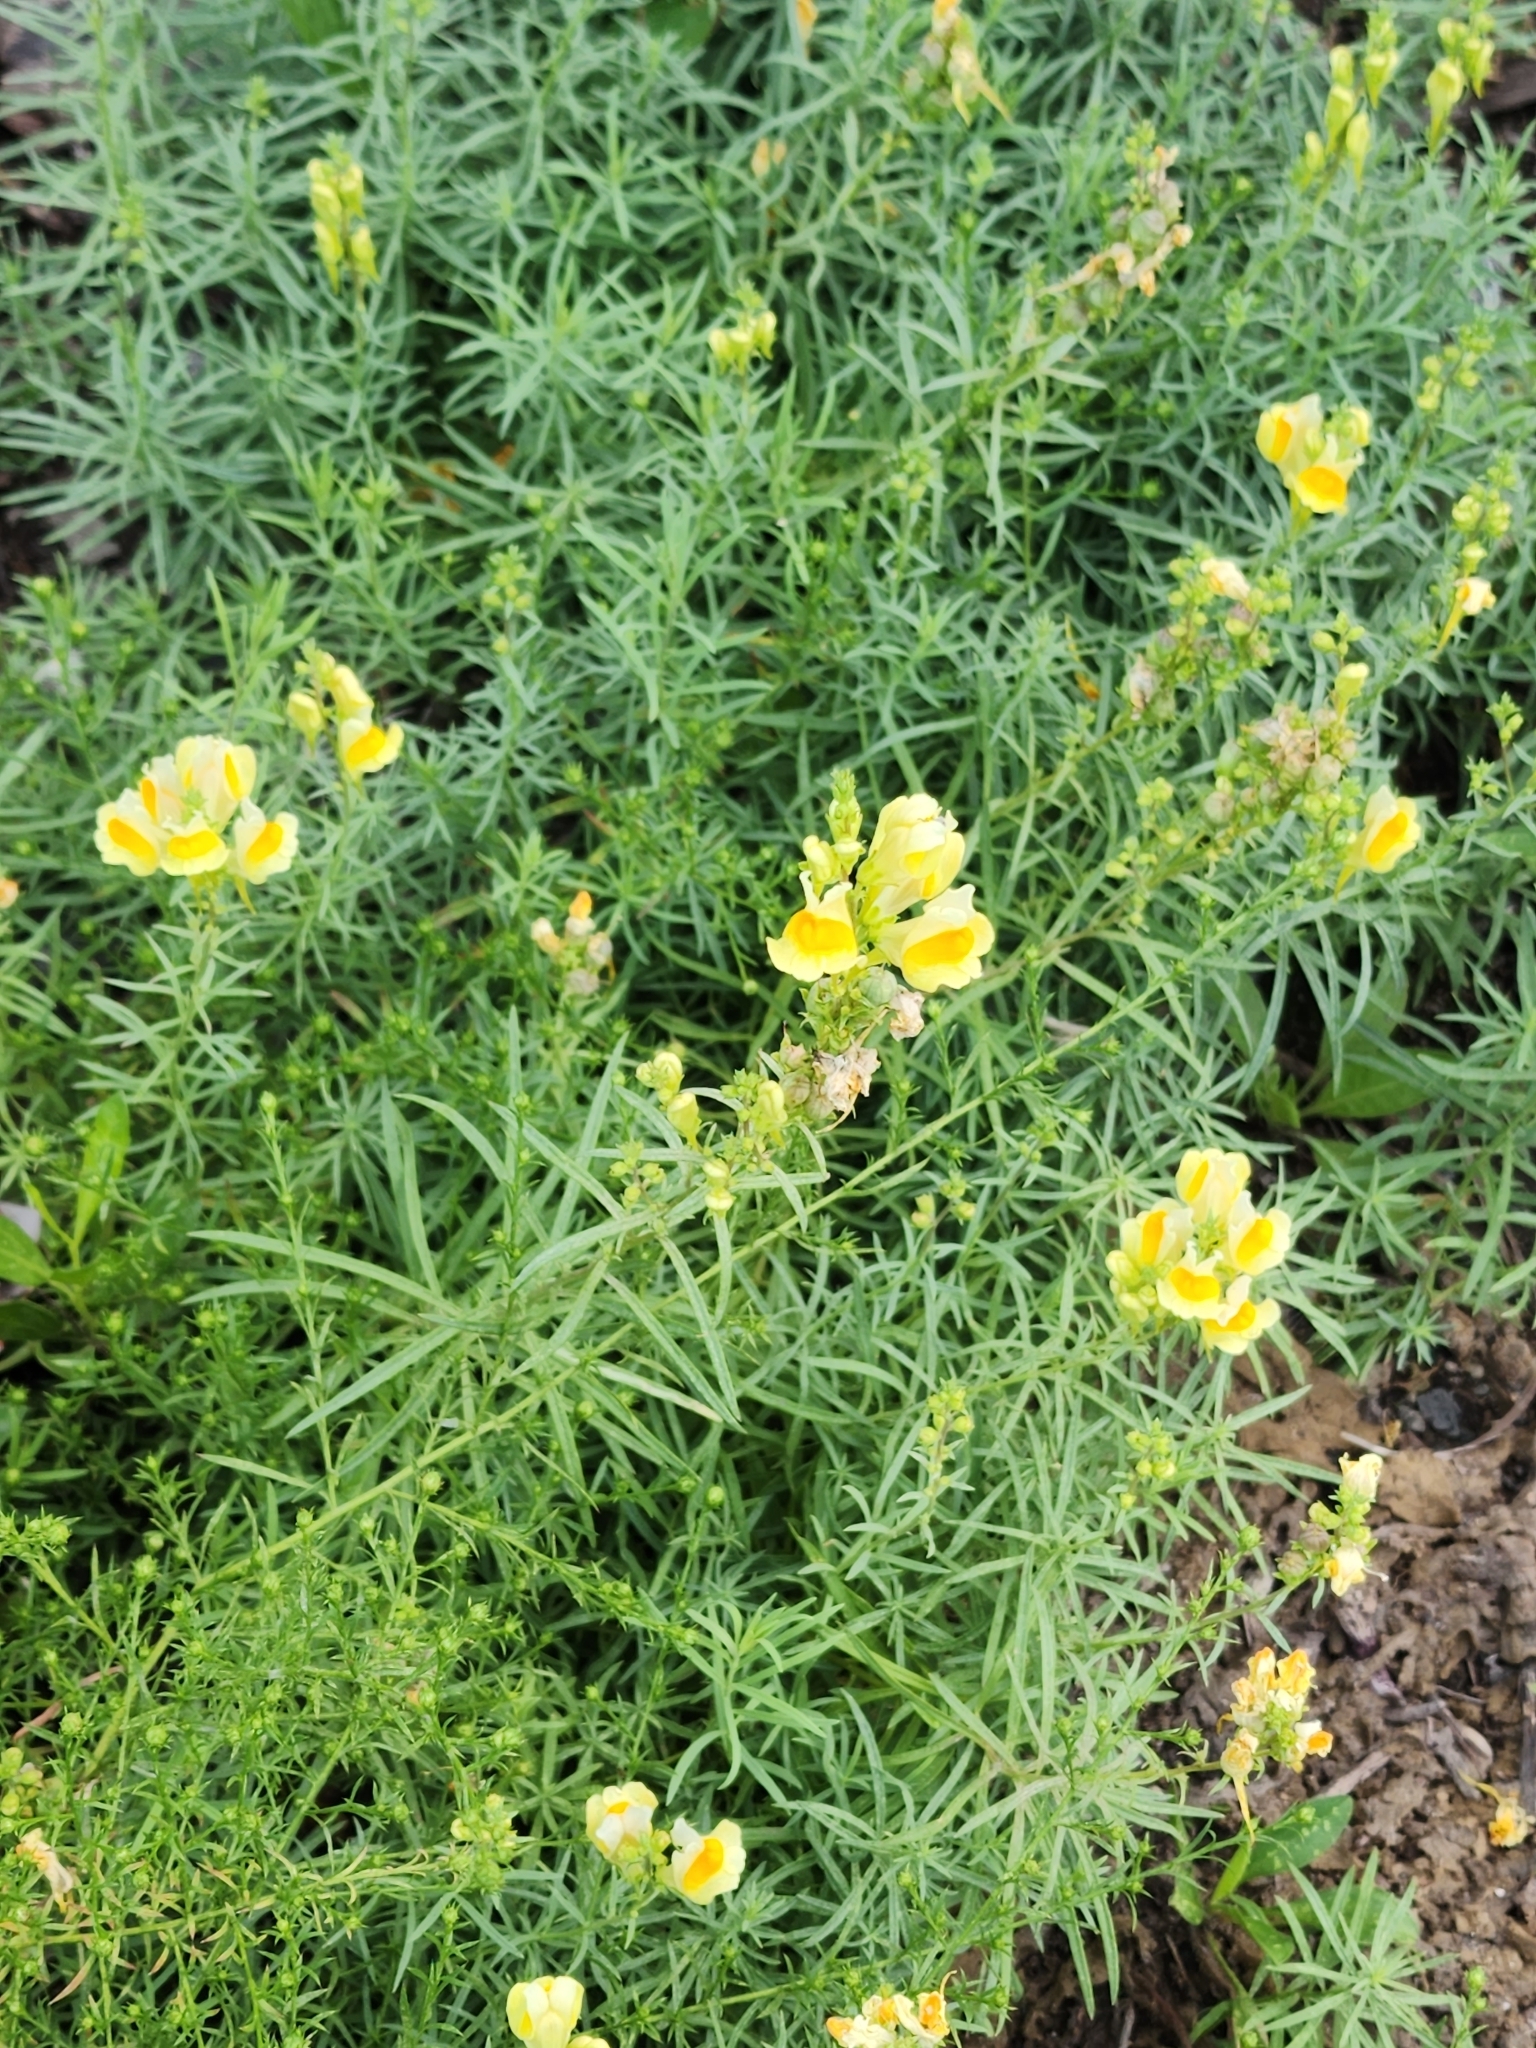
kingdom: Plantae
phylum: Tracheophyta
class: Magnoliopsida
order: Lamiales
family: Plantaginaceae
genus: Linaria
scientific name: Linaria vulgaris
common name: Butter and eggs
